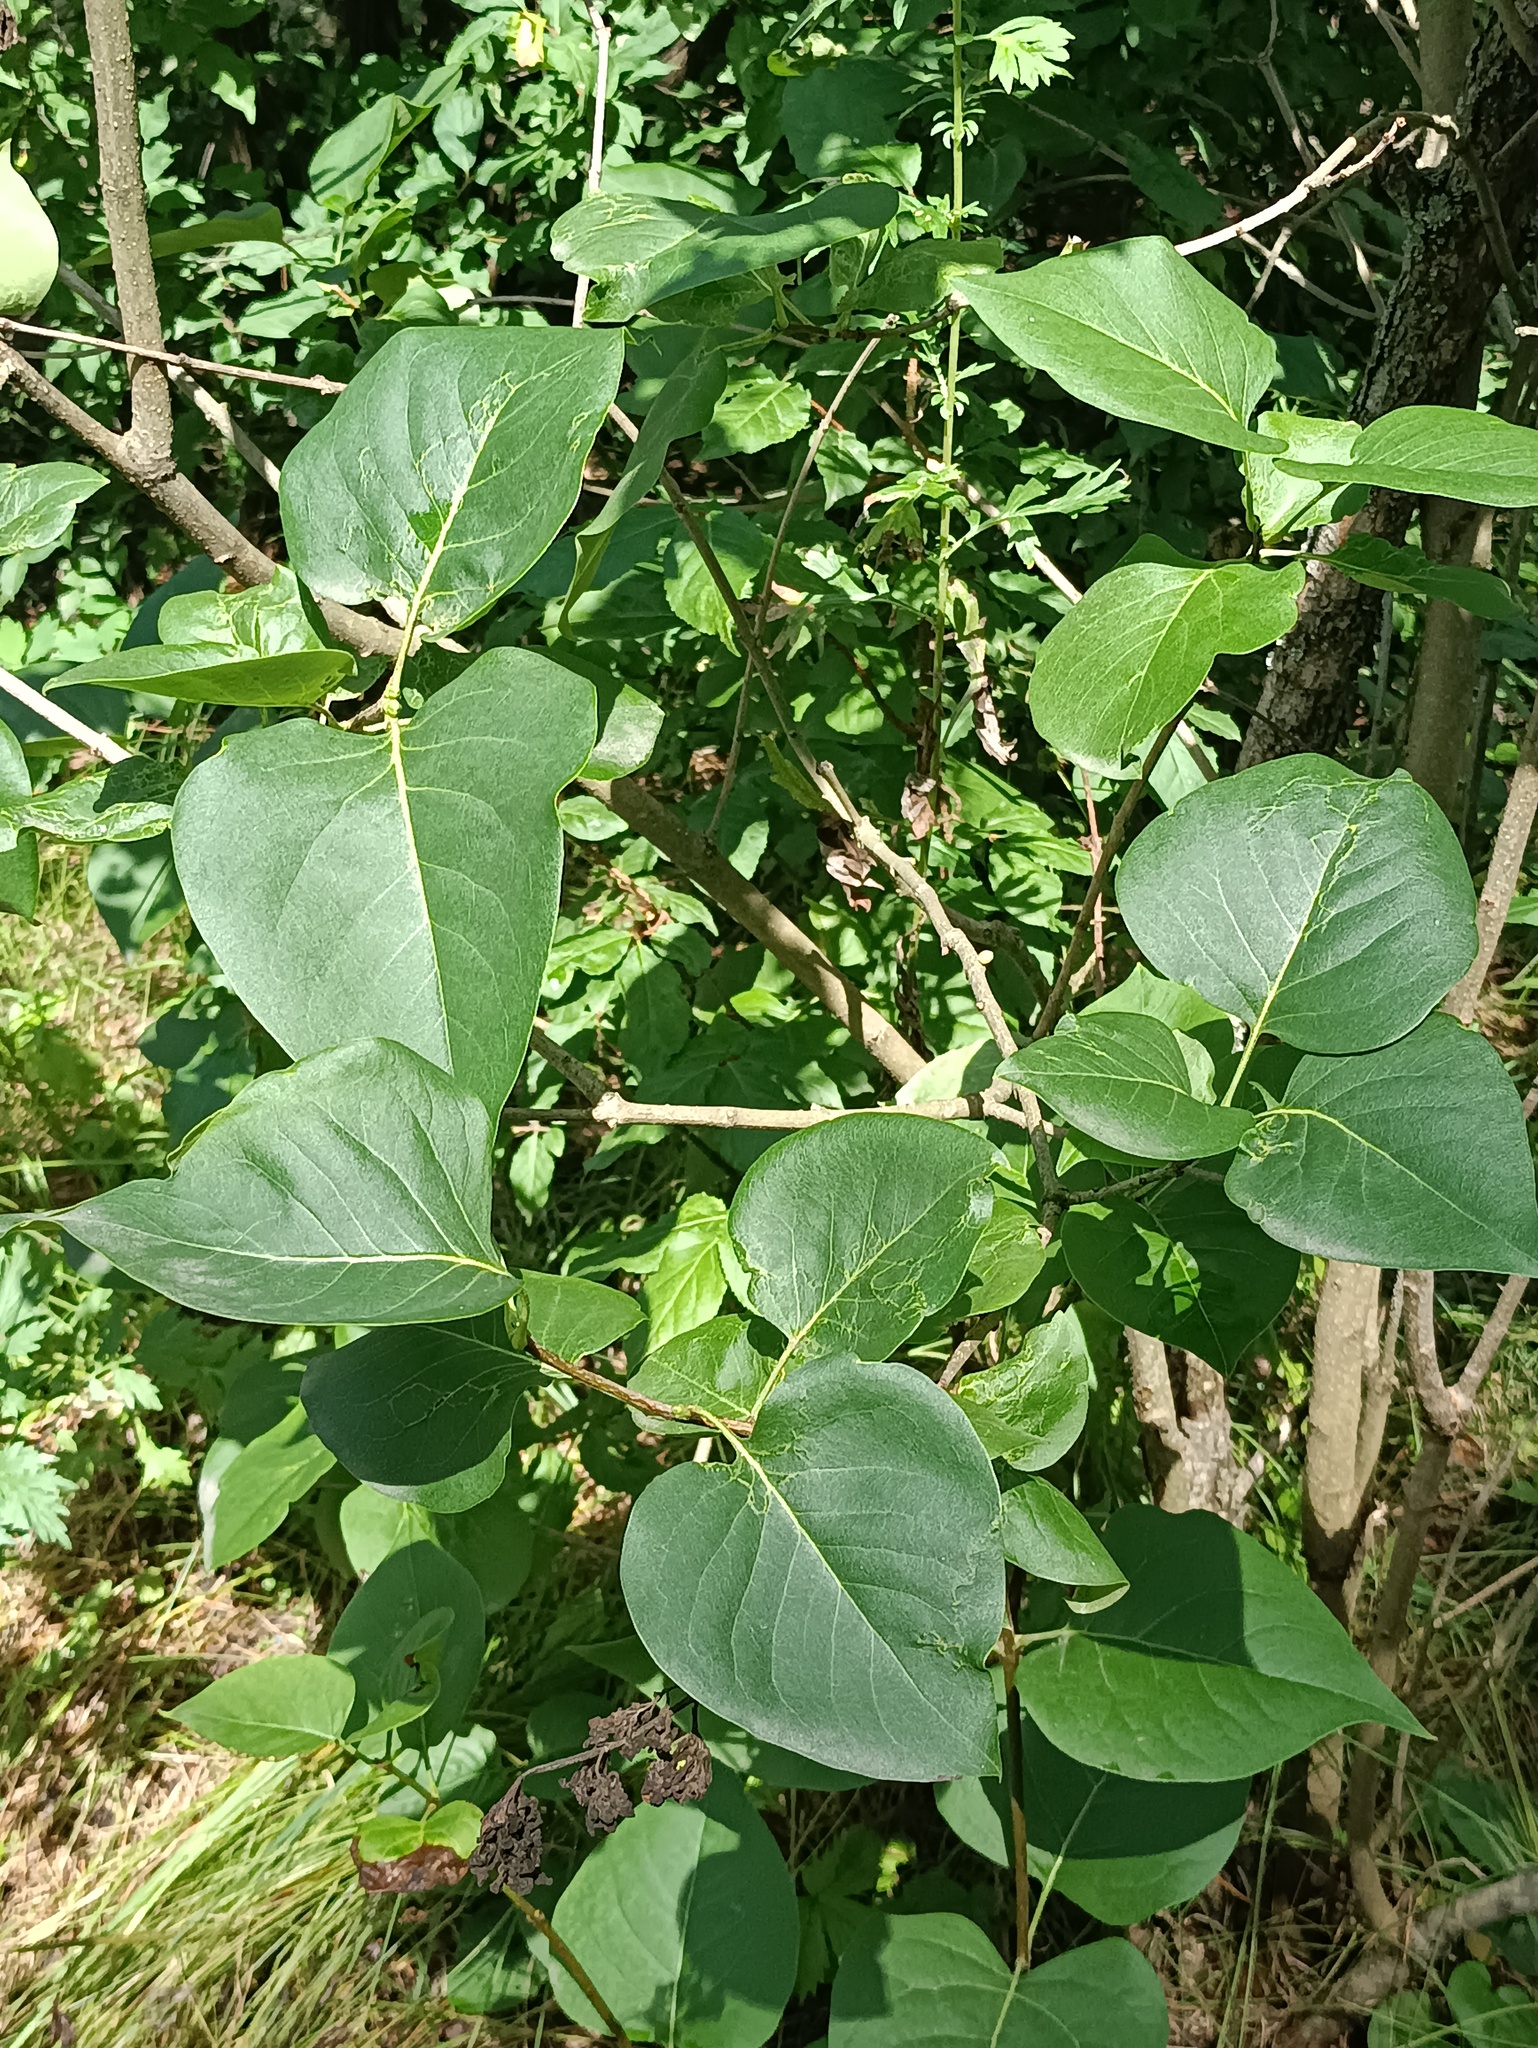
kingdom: Plantae
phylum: Tracheophyta
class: Magnoliopsida
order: Lamiales
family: Oleaceae
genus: Syringa
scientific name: Syringa vulgaris
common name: Common lilac
